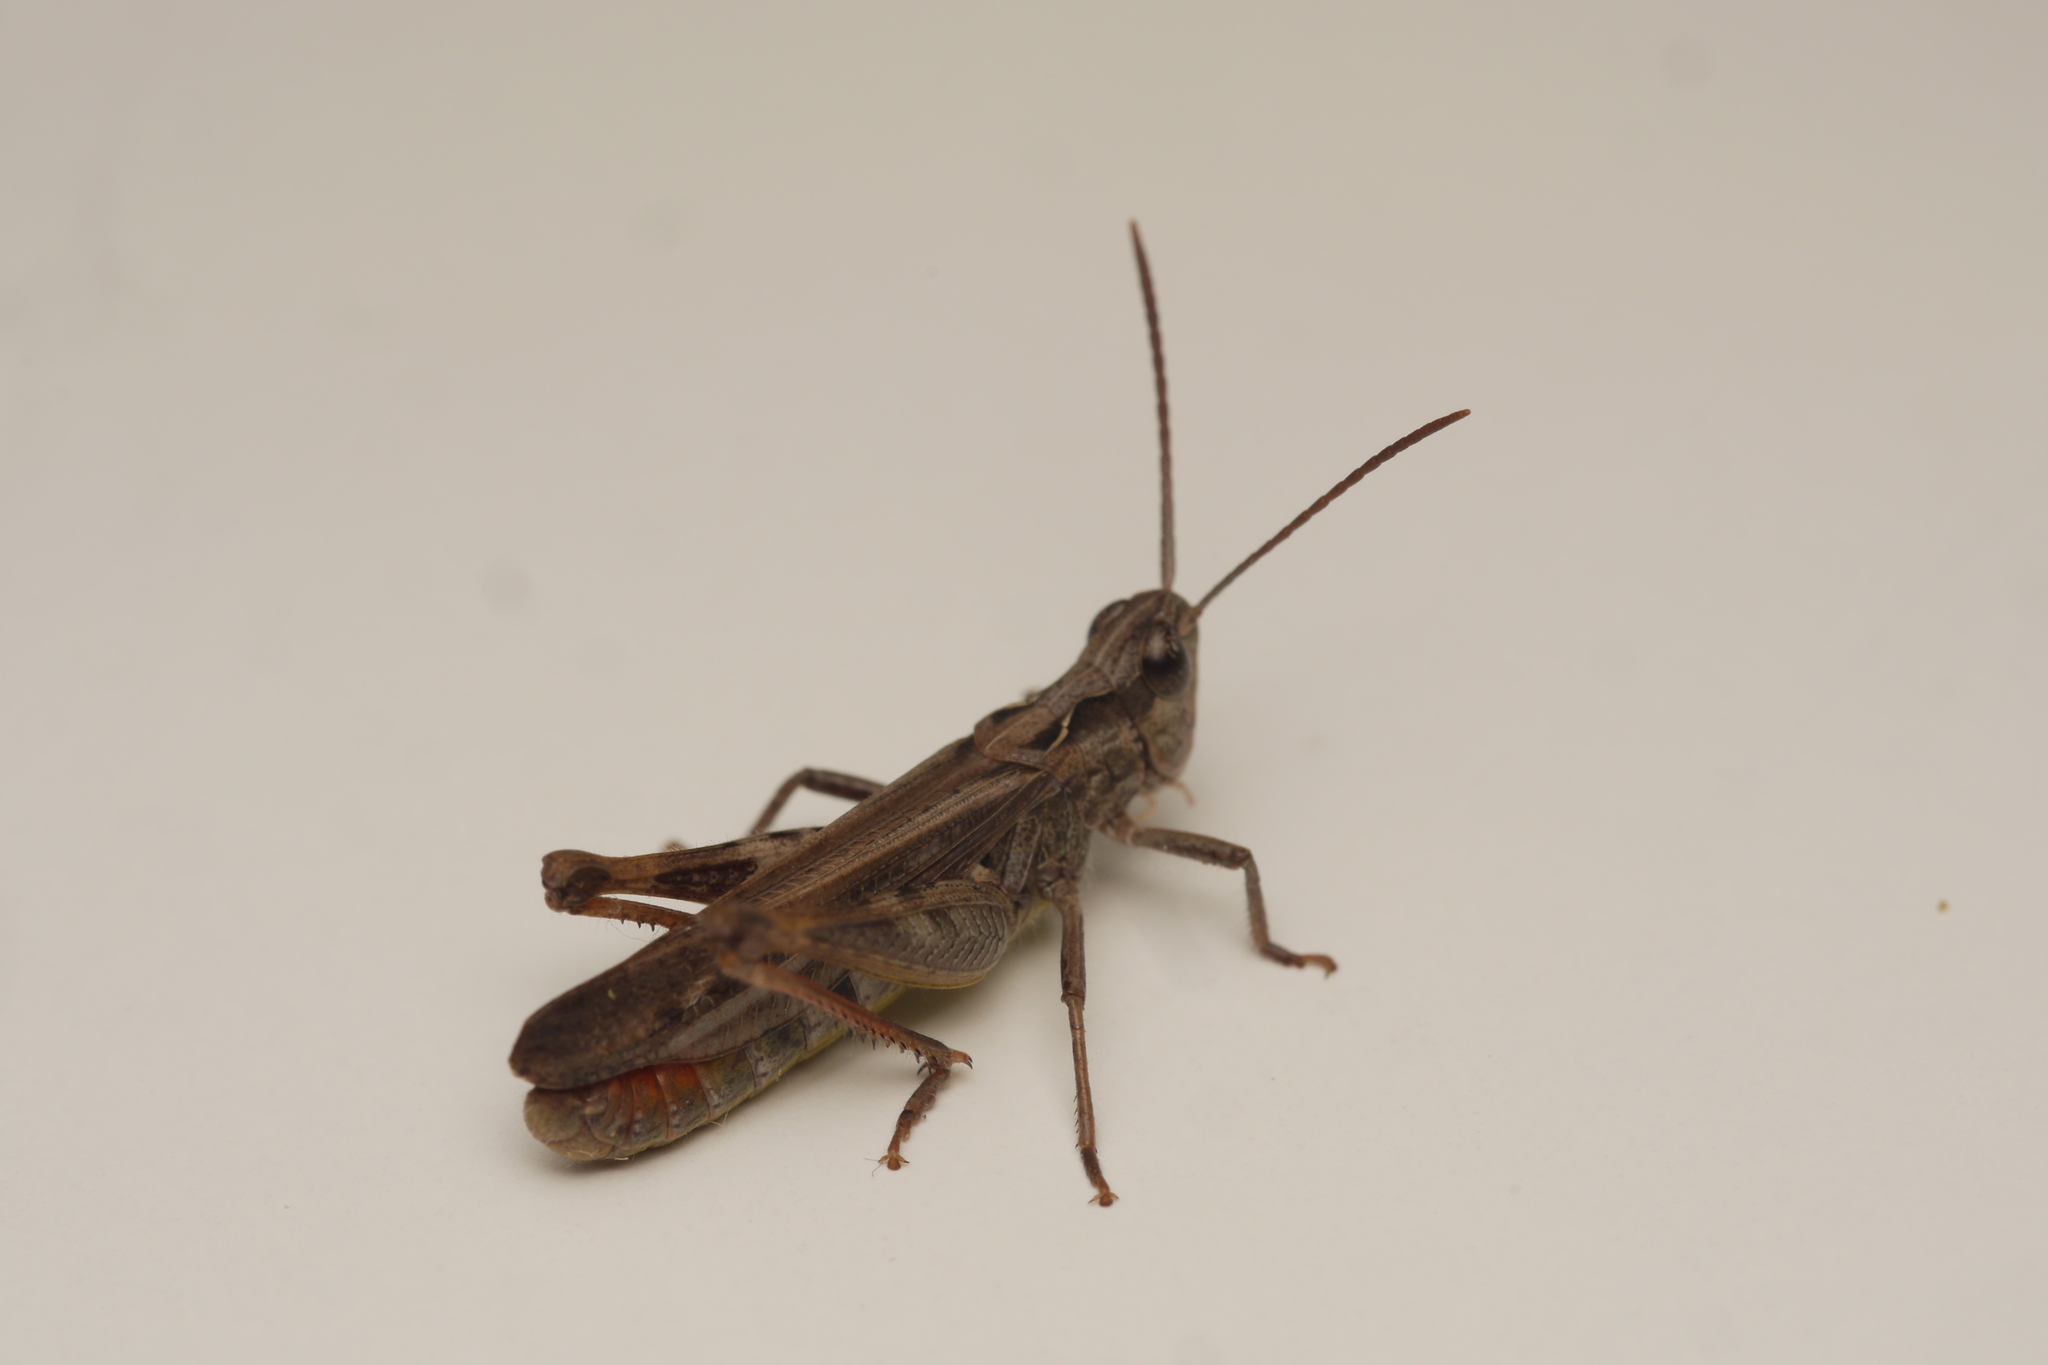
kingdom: Animalia
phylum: Arthropoda
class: Insecta
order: Orthoptera
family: Acrididae
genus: Chorthippus
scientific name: Chorthippus biguttulus
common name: Bow-winged grasshopper
